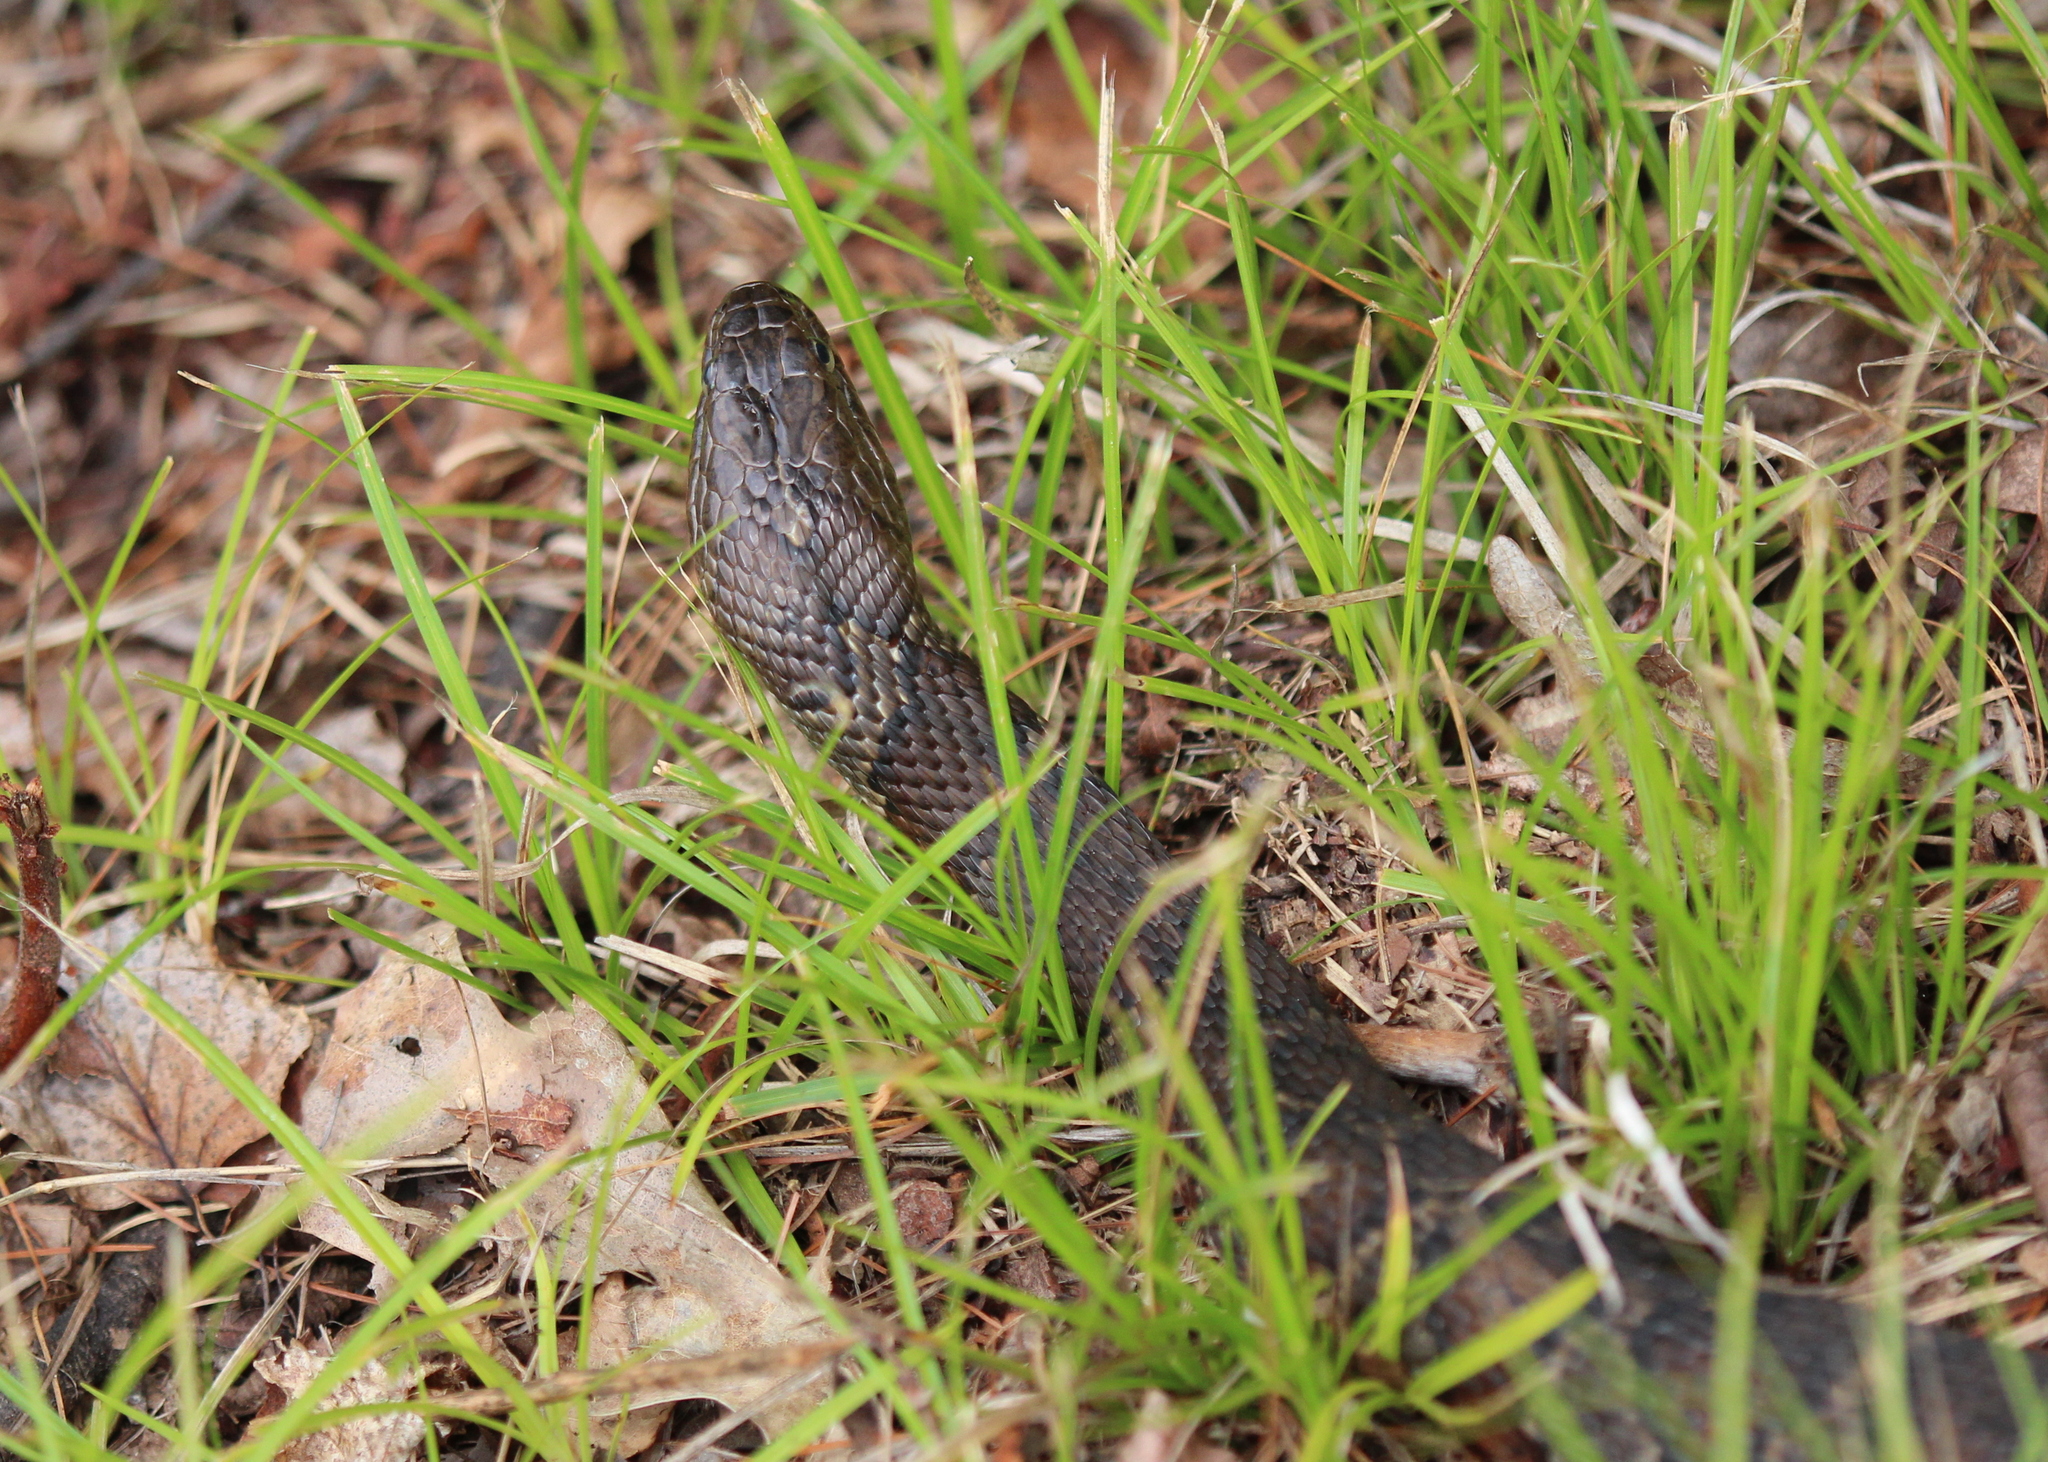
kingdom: Animalia
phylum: Chordata
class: Squamata
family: Colubridae
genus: Nerodia
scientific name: Nerodia sipedon
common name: Northern water snake
